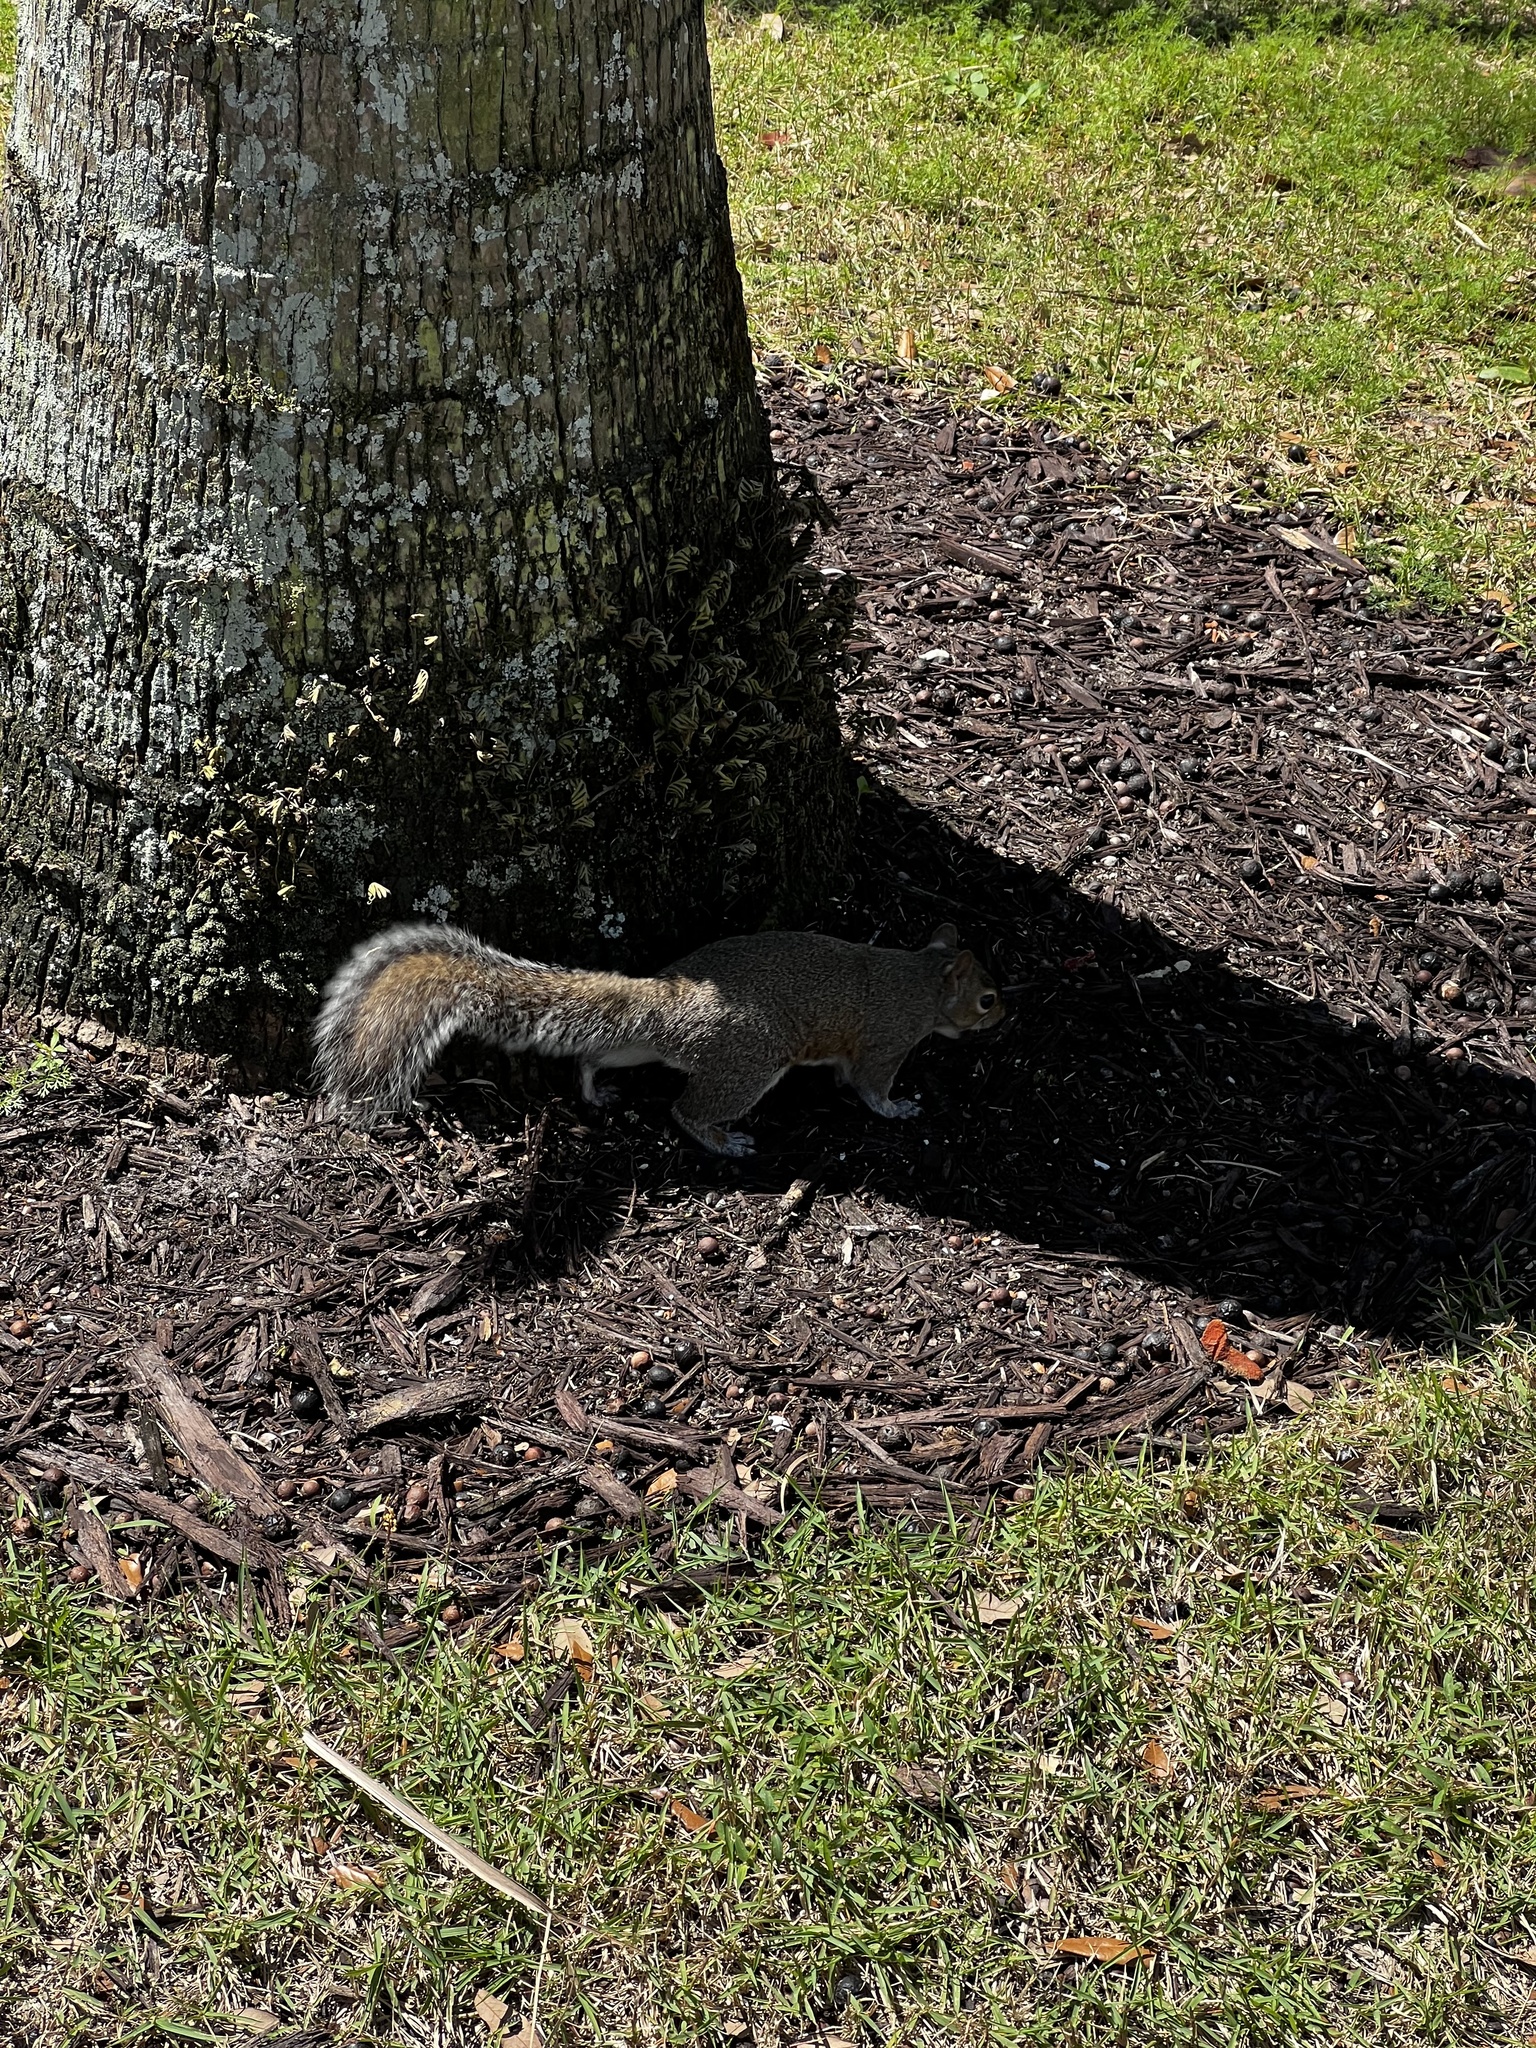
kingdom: Animalia
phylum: Chordata
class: Mammalia
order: Rodentia
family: Sciuridae
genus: Sciurus
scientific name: Sciurus carolinensis
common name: Eastern gray squirrel
